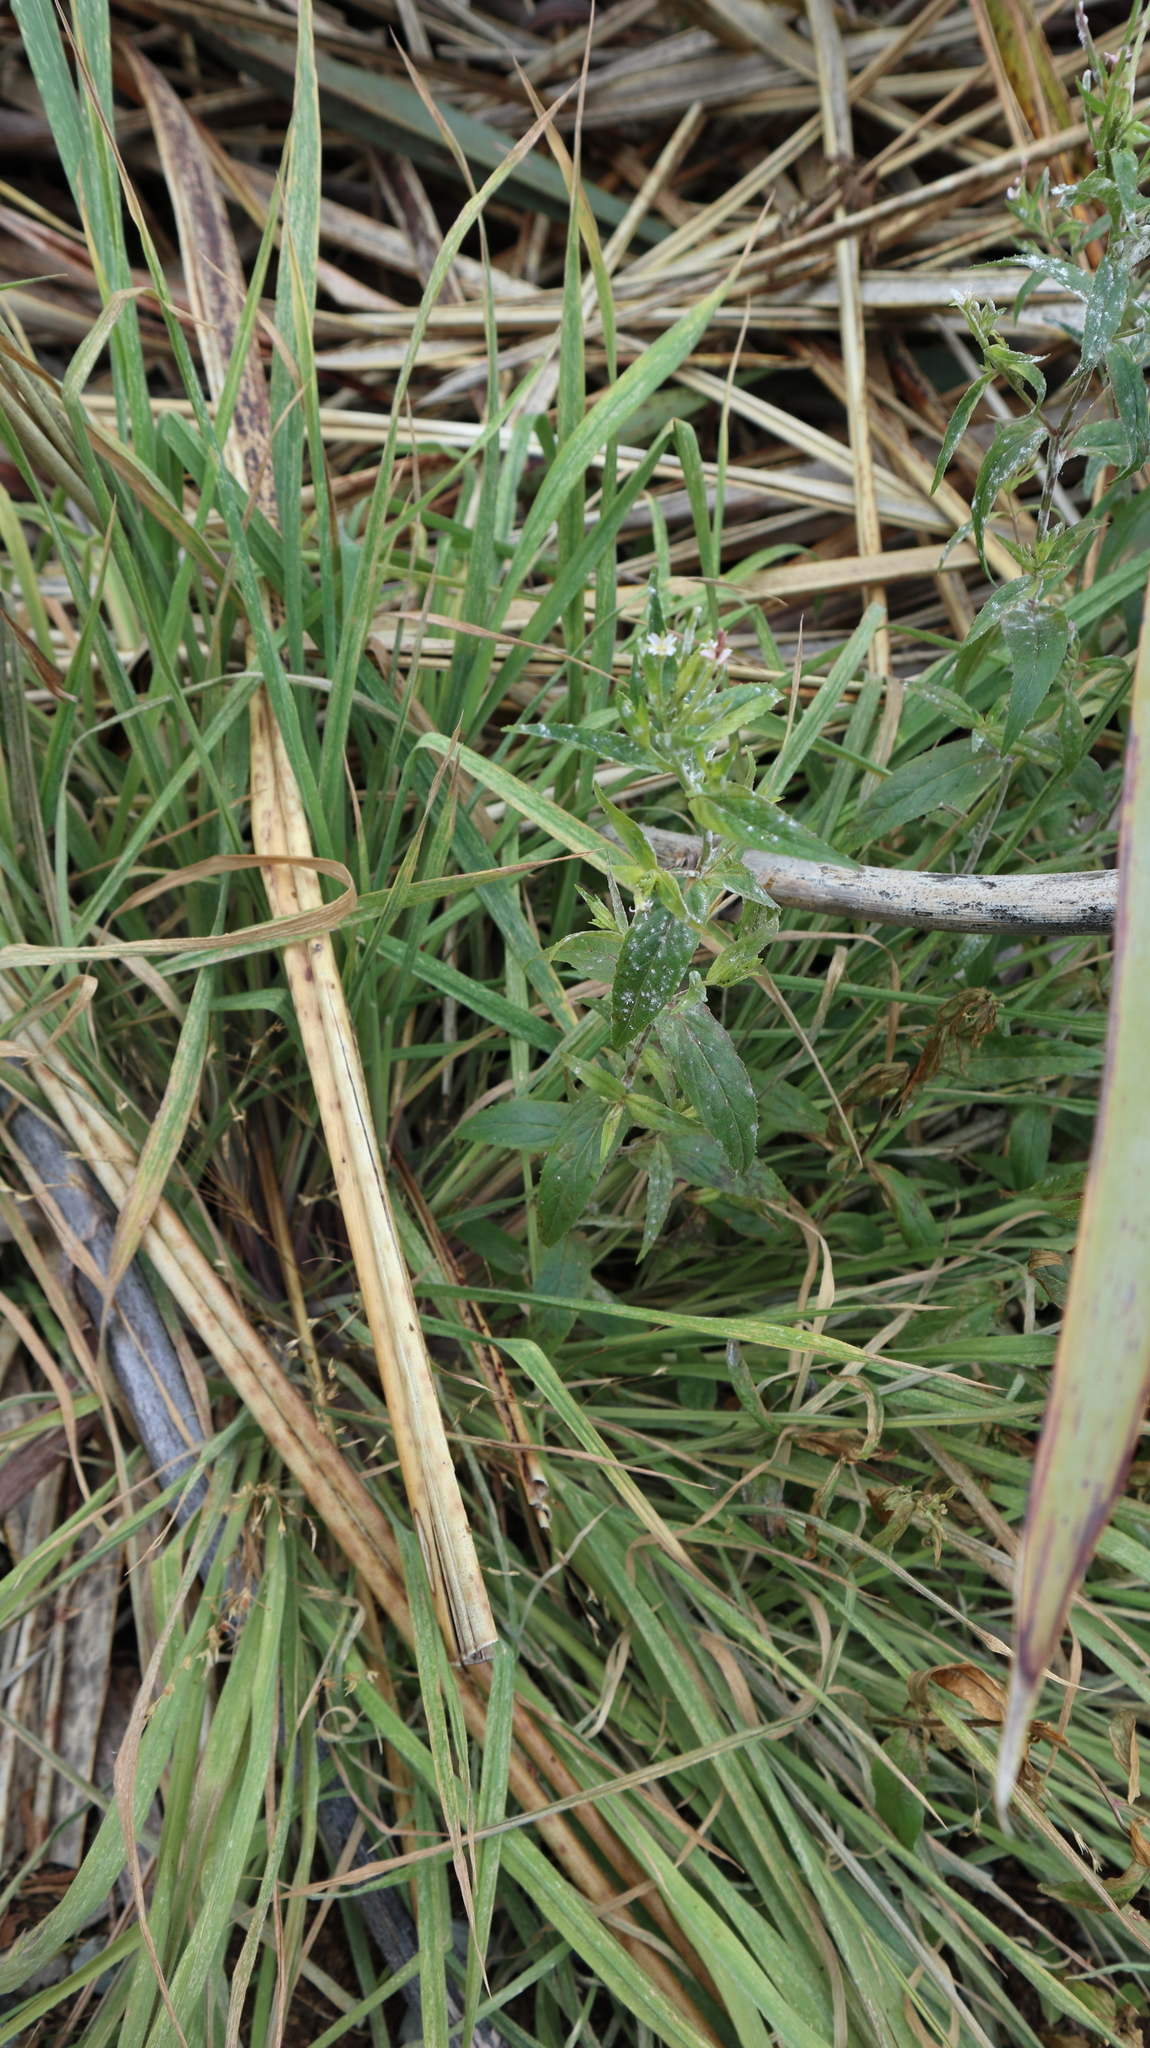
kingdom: Plantae
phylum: Tracheophyta
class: Magnoliopsida
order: Myrtales
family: Onagraceae
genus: Epilobium
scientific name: Epilobium ciliatum
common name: American willowherb
